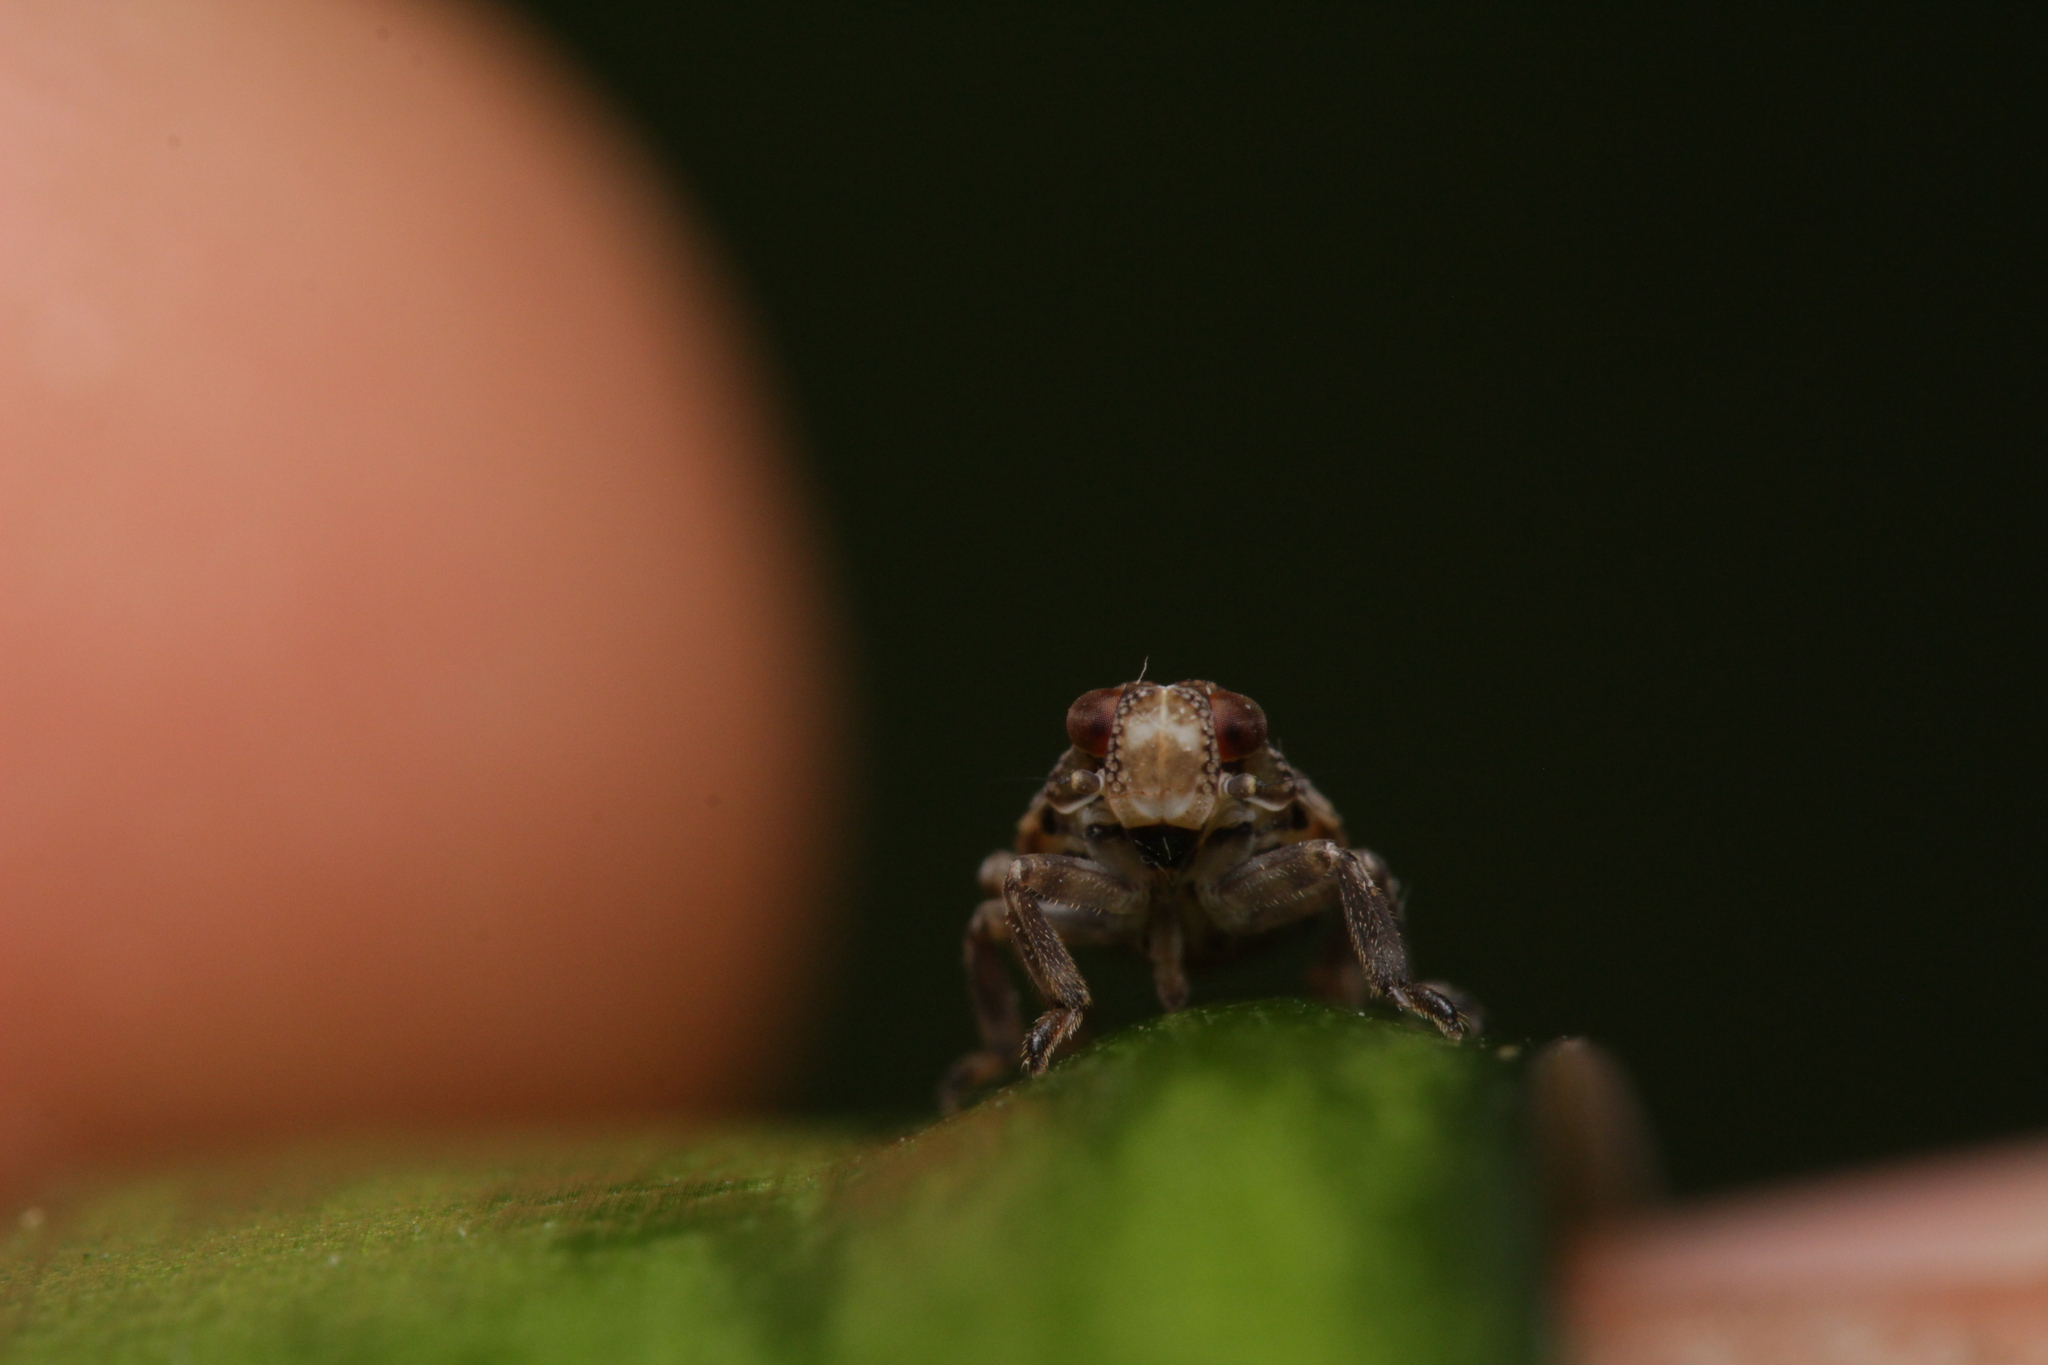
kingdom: Animalia
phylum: Arthropoda
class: Insecta
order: Hemiptera
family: Issidae
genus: Issus
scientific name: Issus coleoptratus
